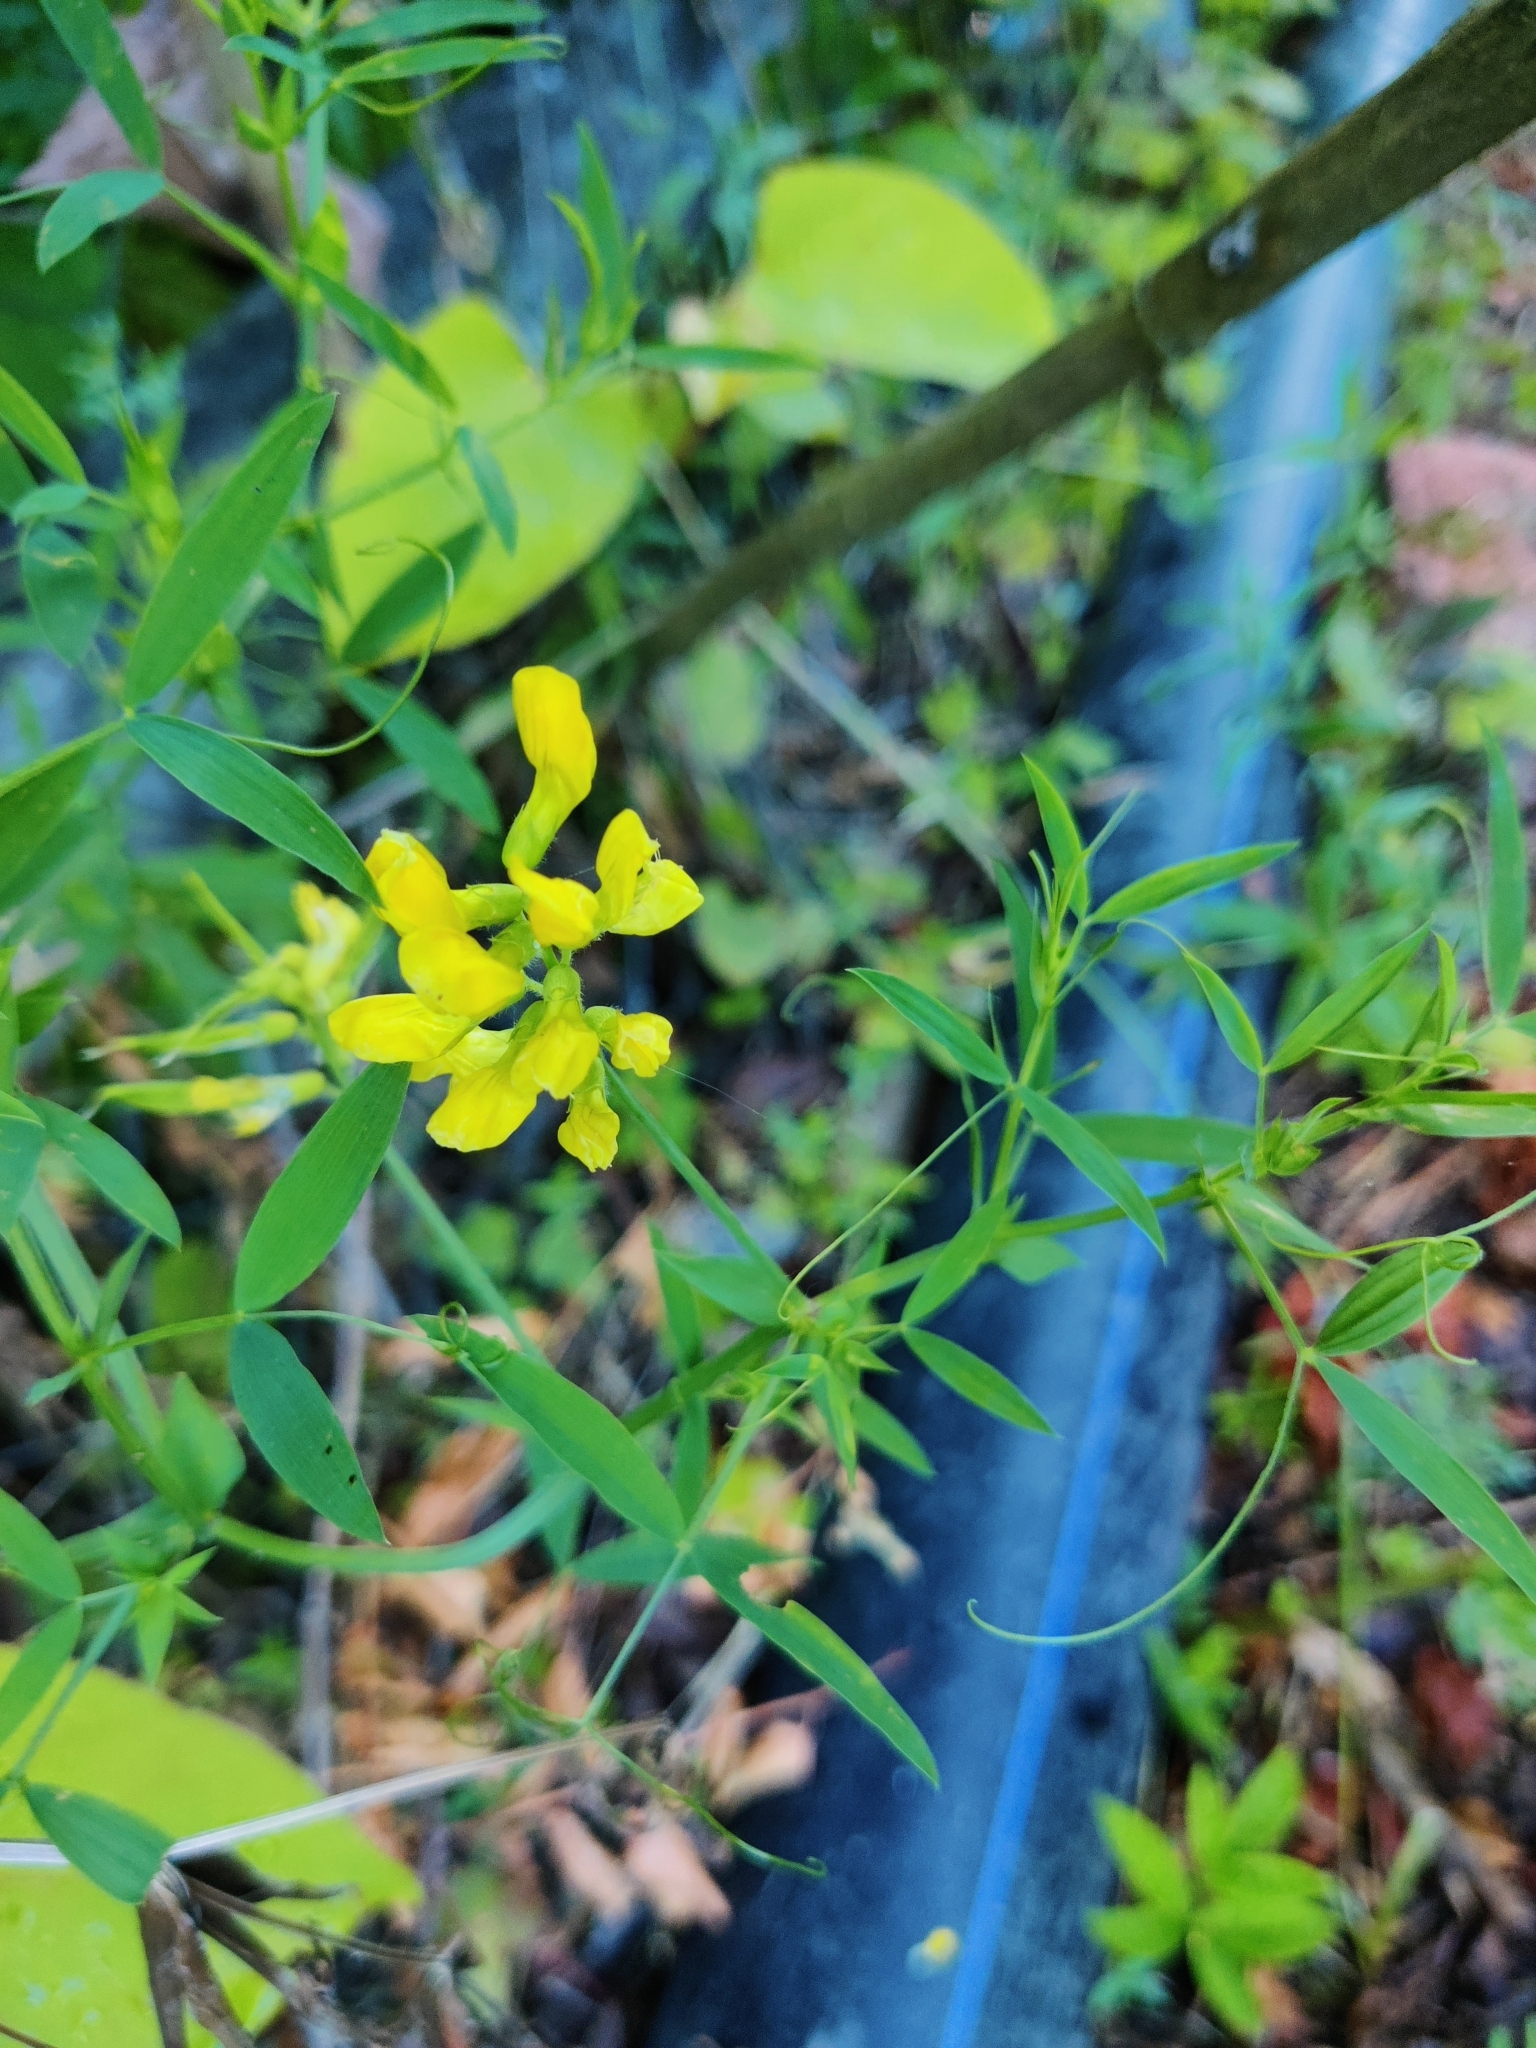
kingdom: Plantae
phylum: Tracheophyta
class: Magnoliopsida
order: Fabales
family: Fabaceae
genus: Lathyrus
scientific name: Lathyrus pratensis
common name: Meadow vetchling
